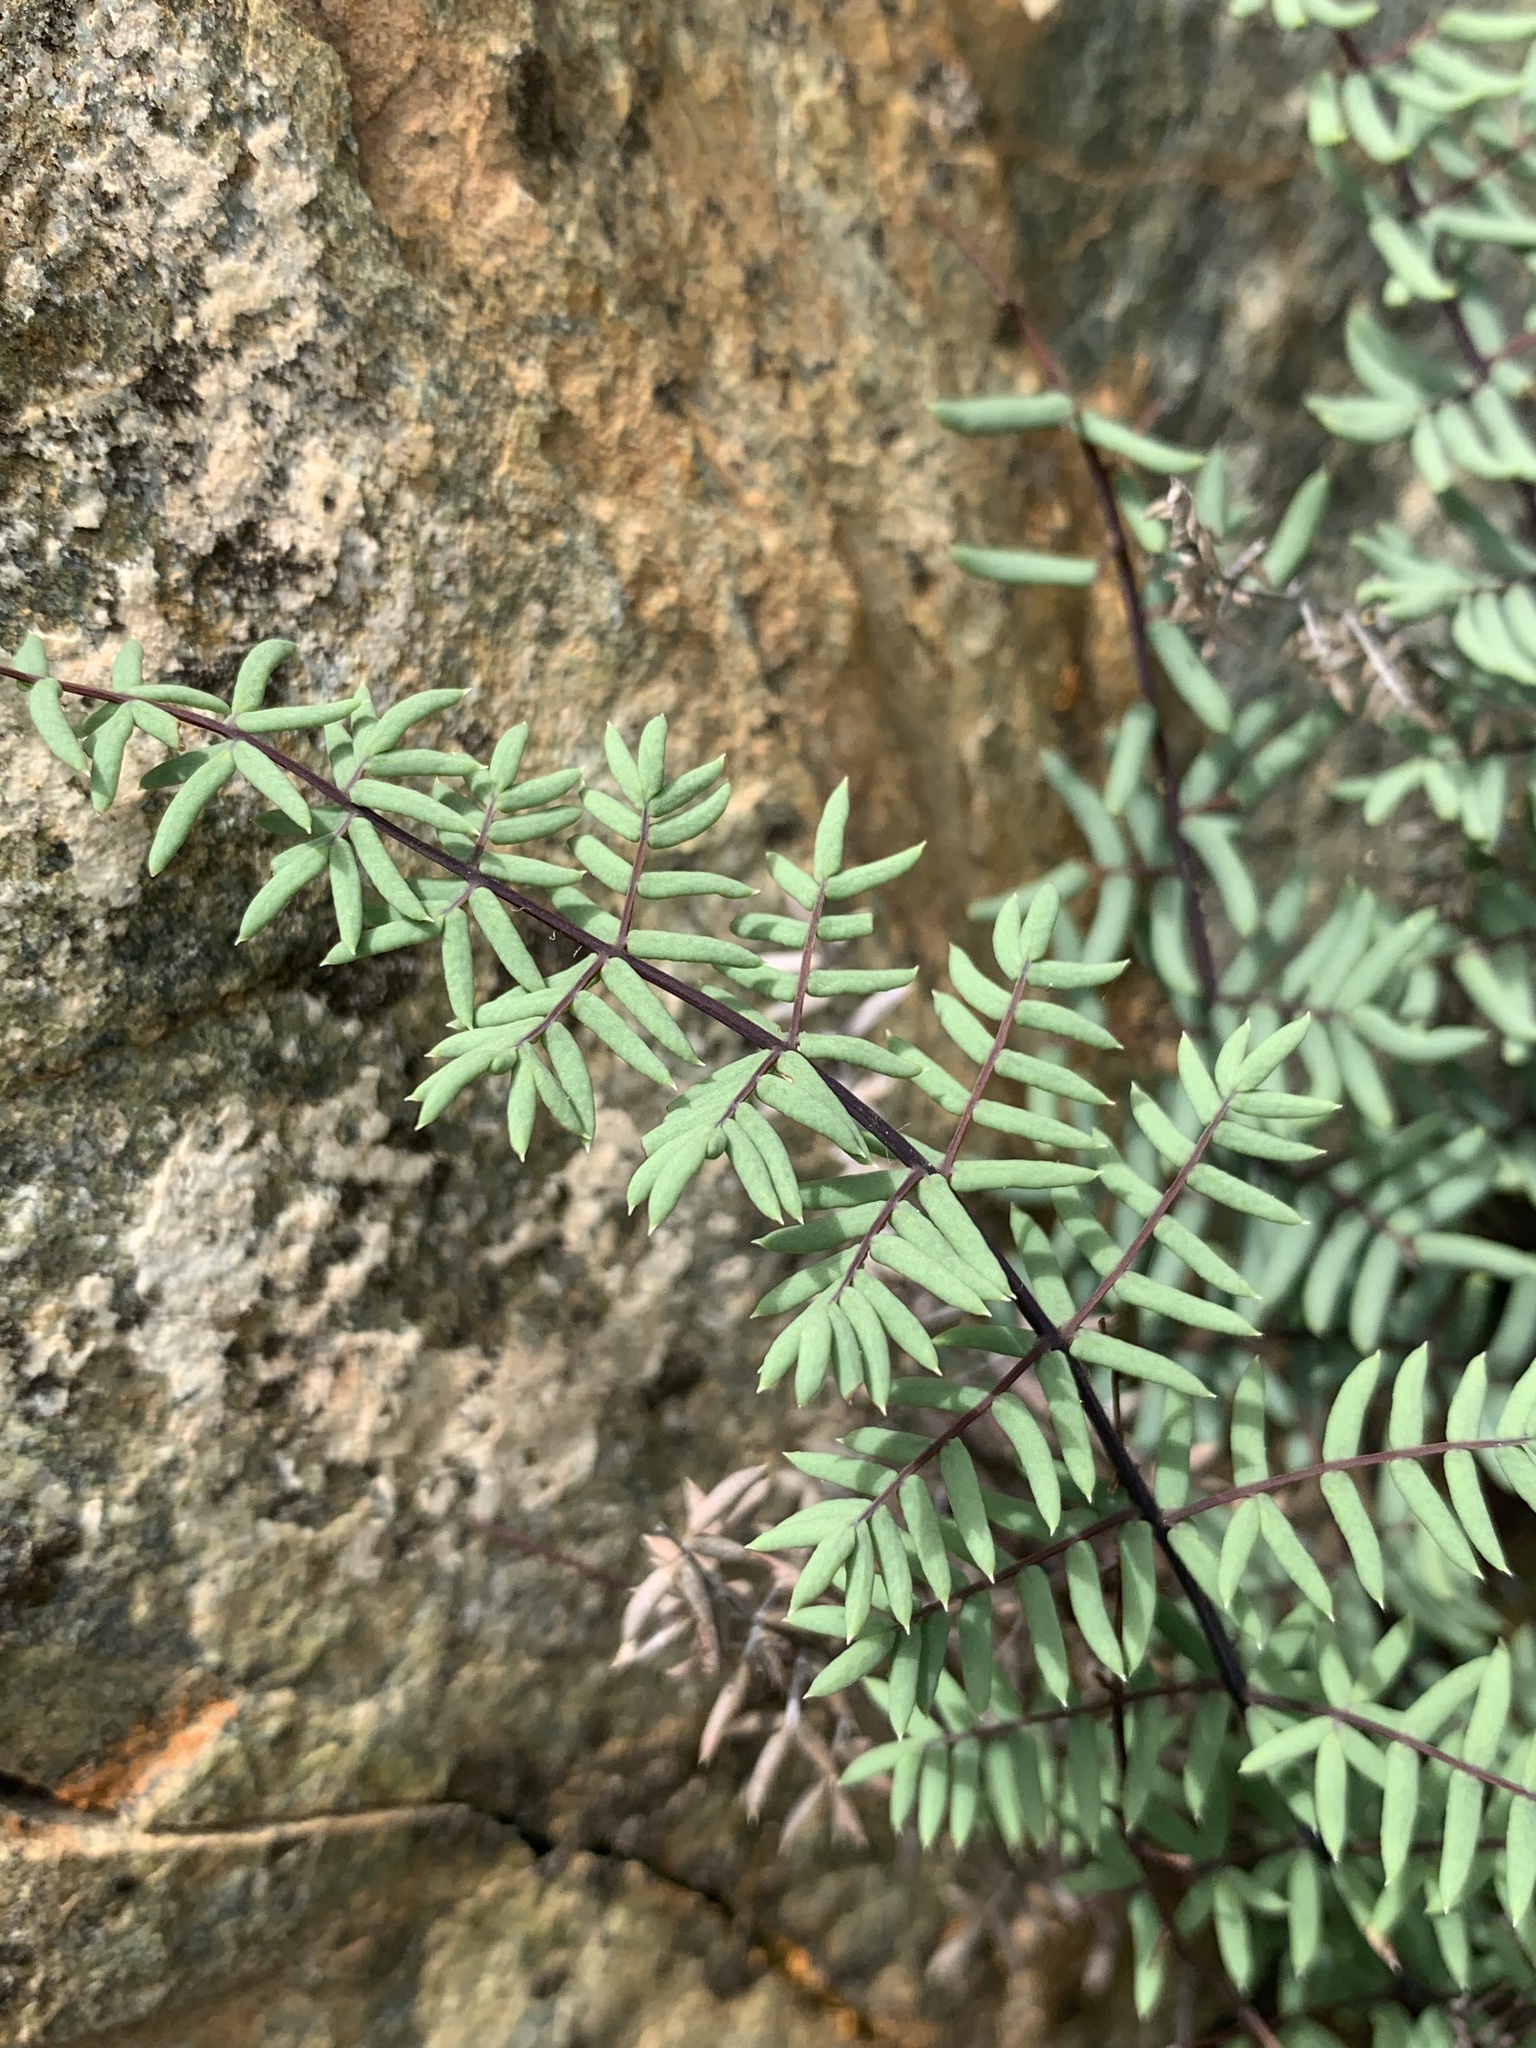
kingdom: Plantae
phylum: Tracheophyta
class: Polypodiopsida
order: Polypodiales
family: Pteridaceae
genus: Pellaea
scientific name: Pellaea mucronata
